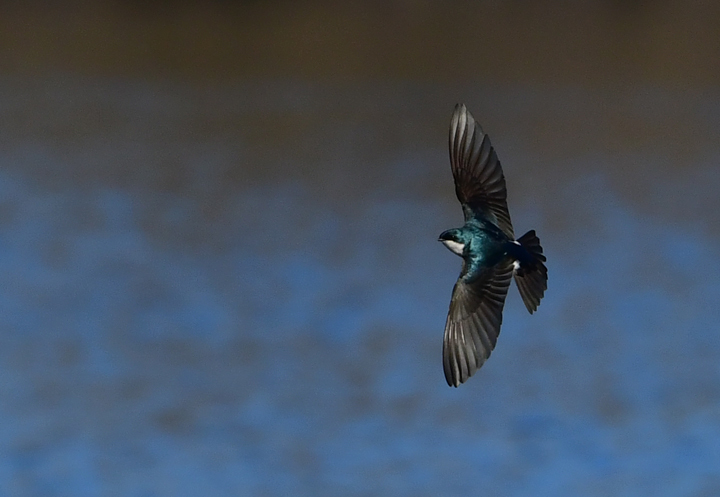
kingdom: Animalia
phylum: Chordata
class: Aves
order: Passeriformes
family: Hirundinidae
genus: Tachycineta
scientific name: Tachycineta bicolor
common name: Tree swallow
